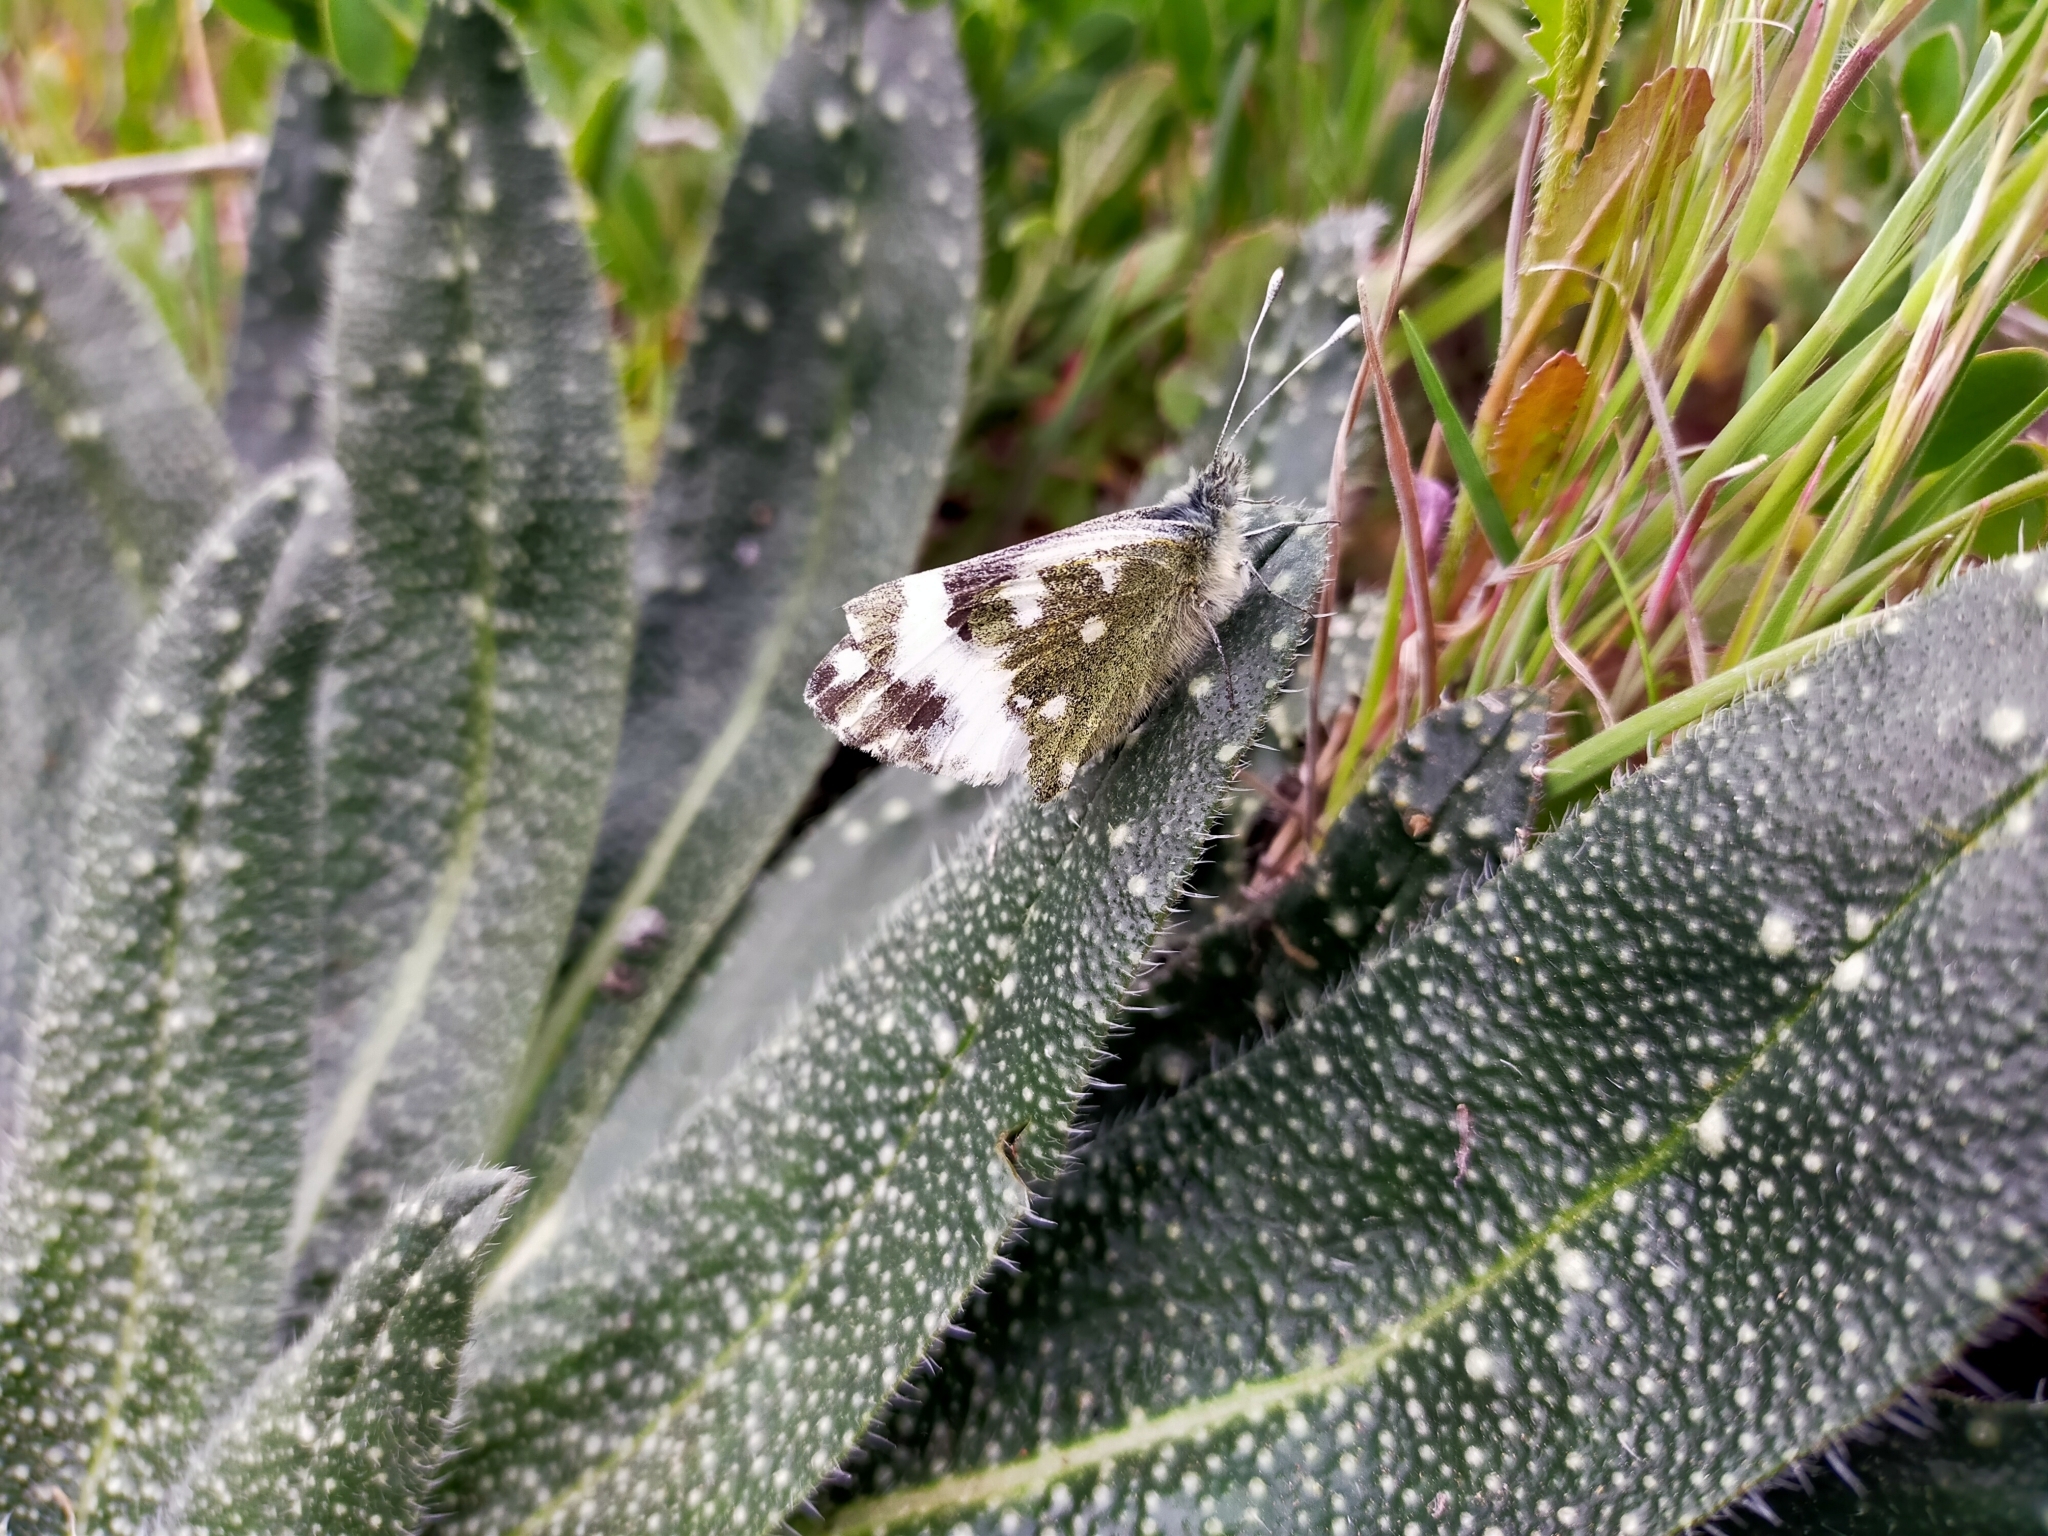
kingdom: Animalia
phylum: Arthropoda
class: Insecta
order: Lepidoptera
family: Pieridae
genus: Pontia
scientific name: Pontia daplidice
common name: Bath white
